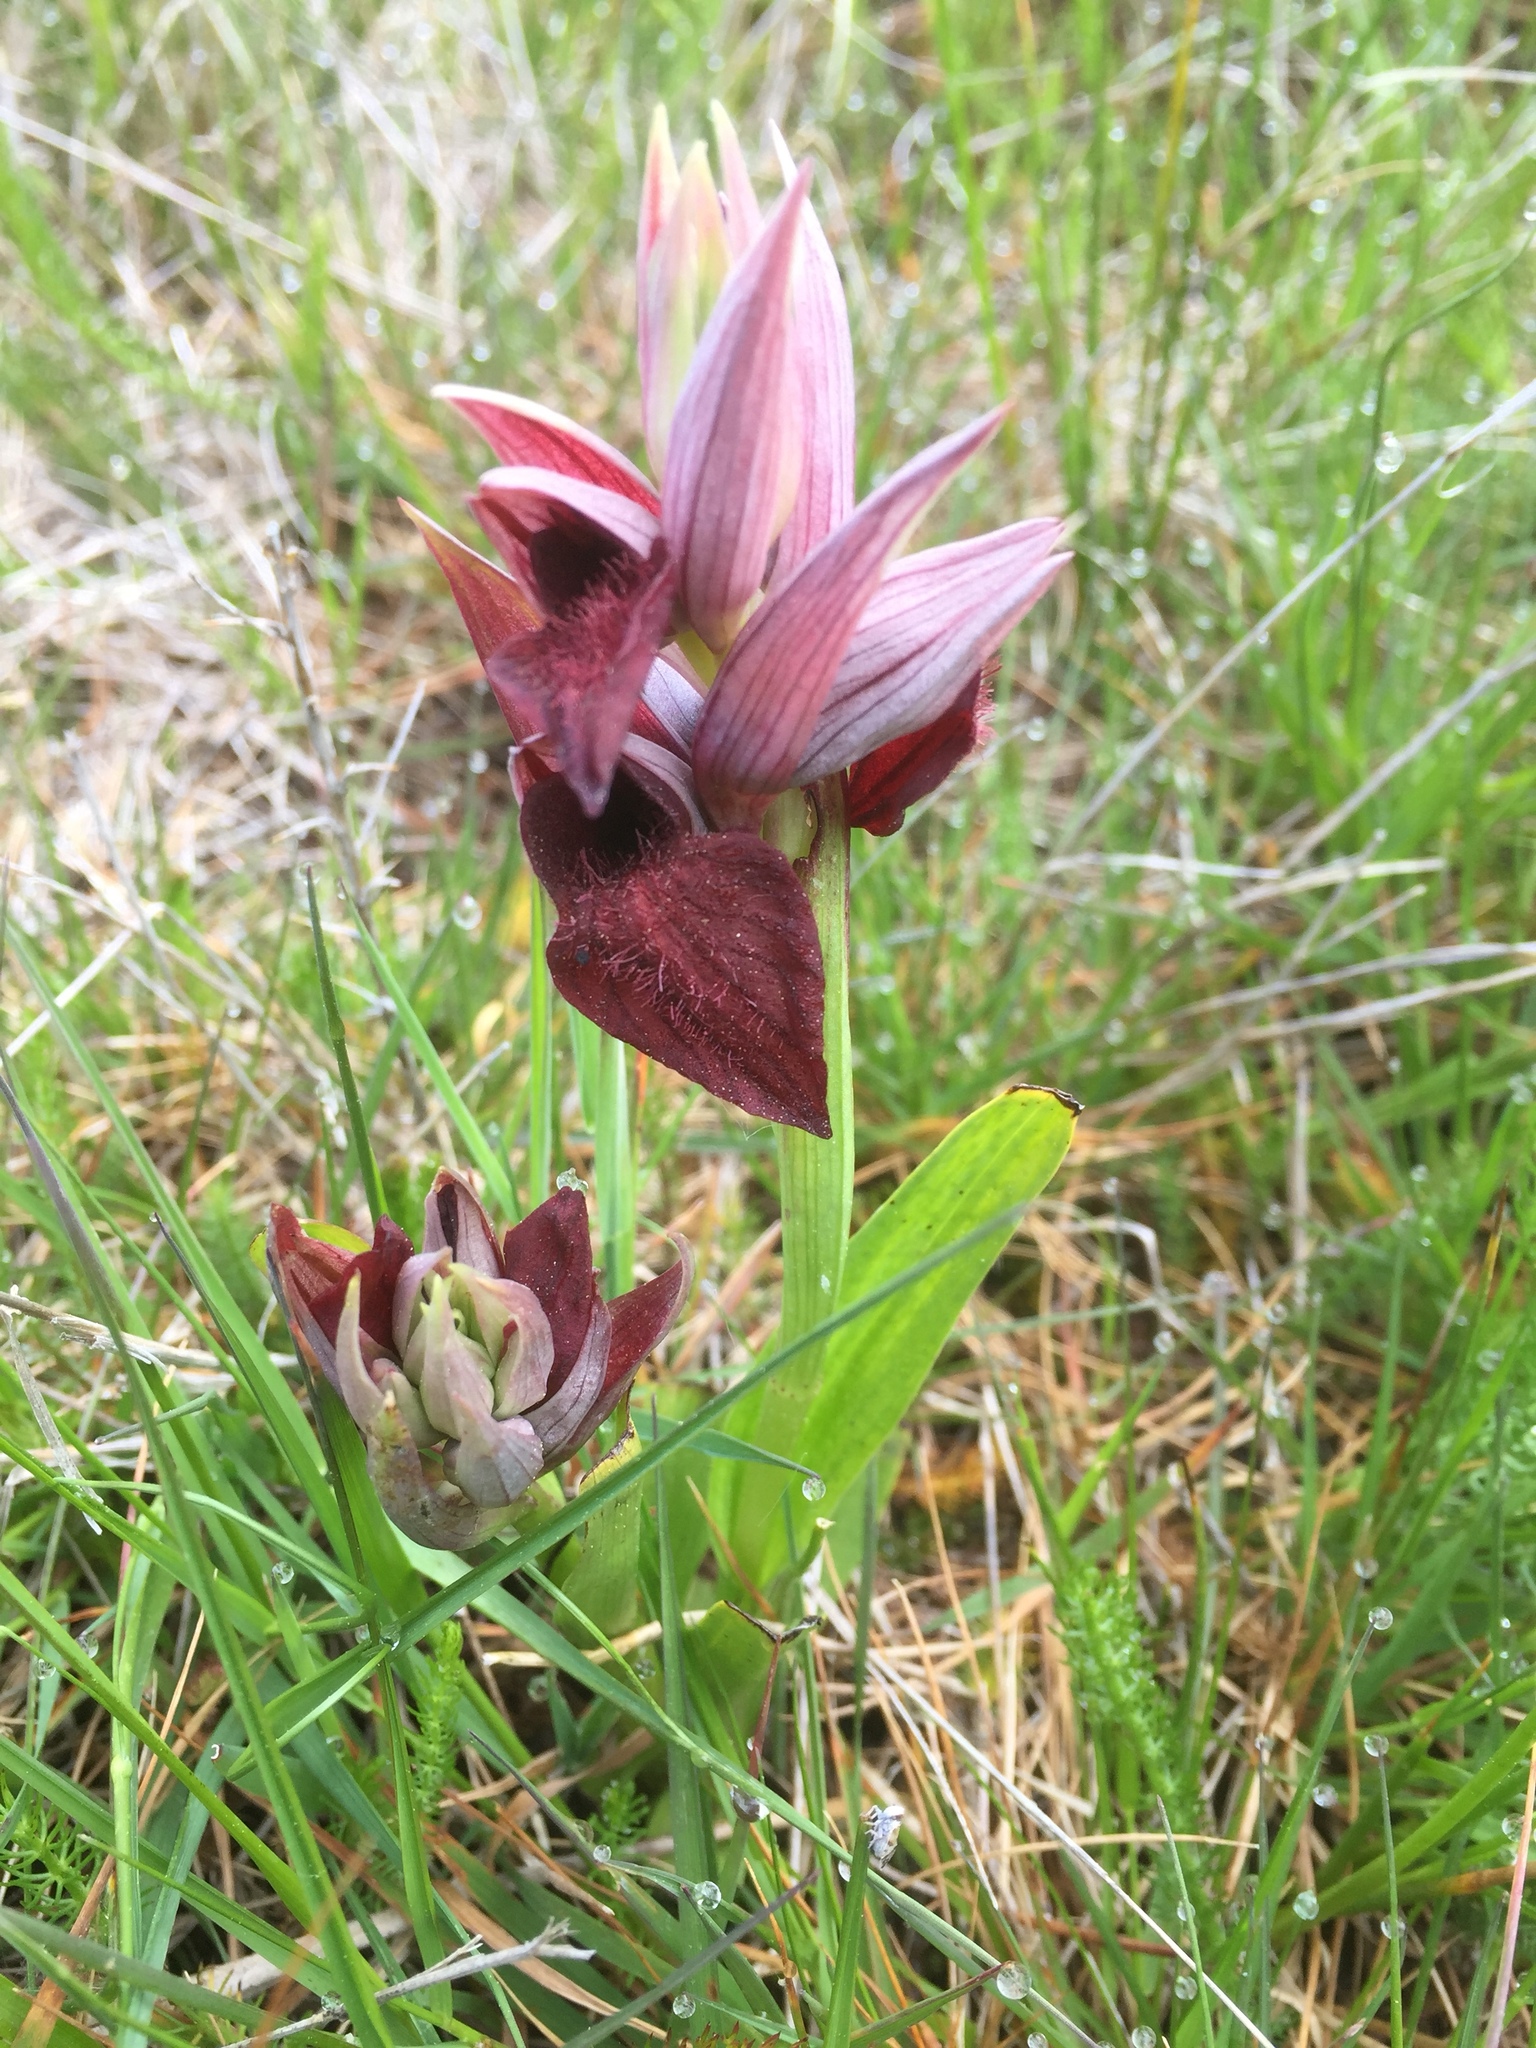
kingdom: Plantae
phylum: Tracheophyta
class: Liliopsida
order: Asparagales
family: Orchidaceae
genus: Serapias
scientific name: Serapias cordigera
